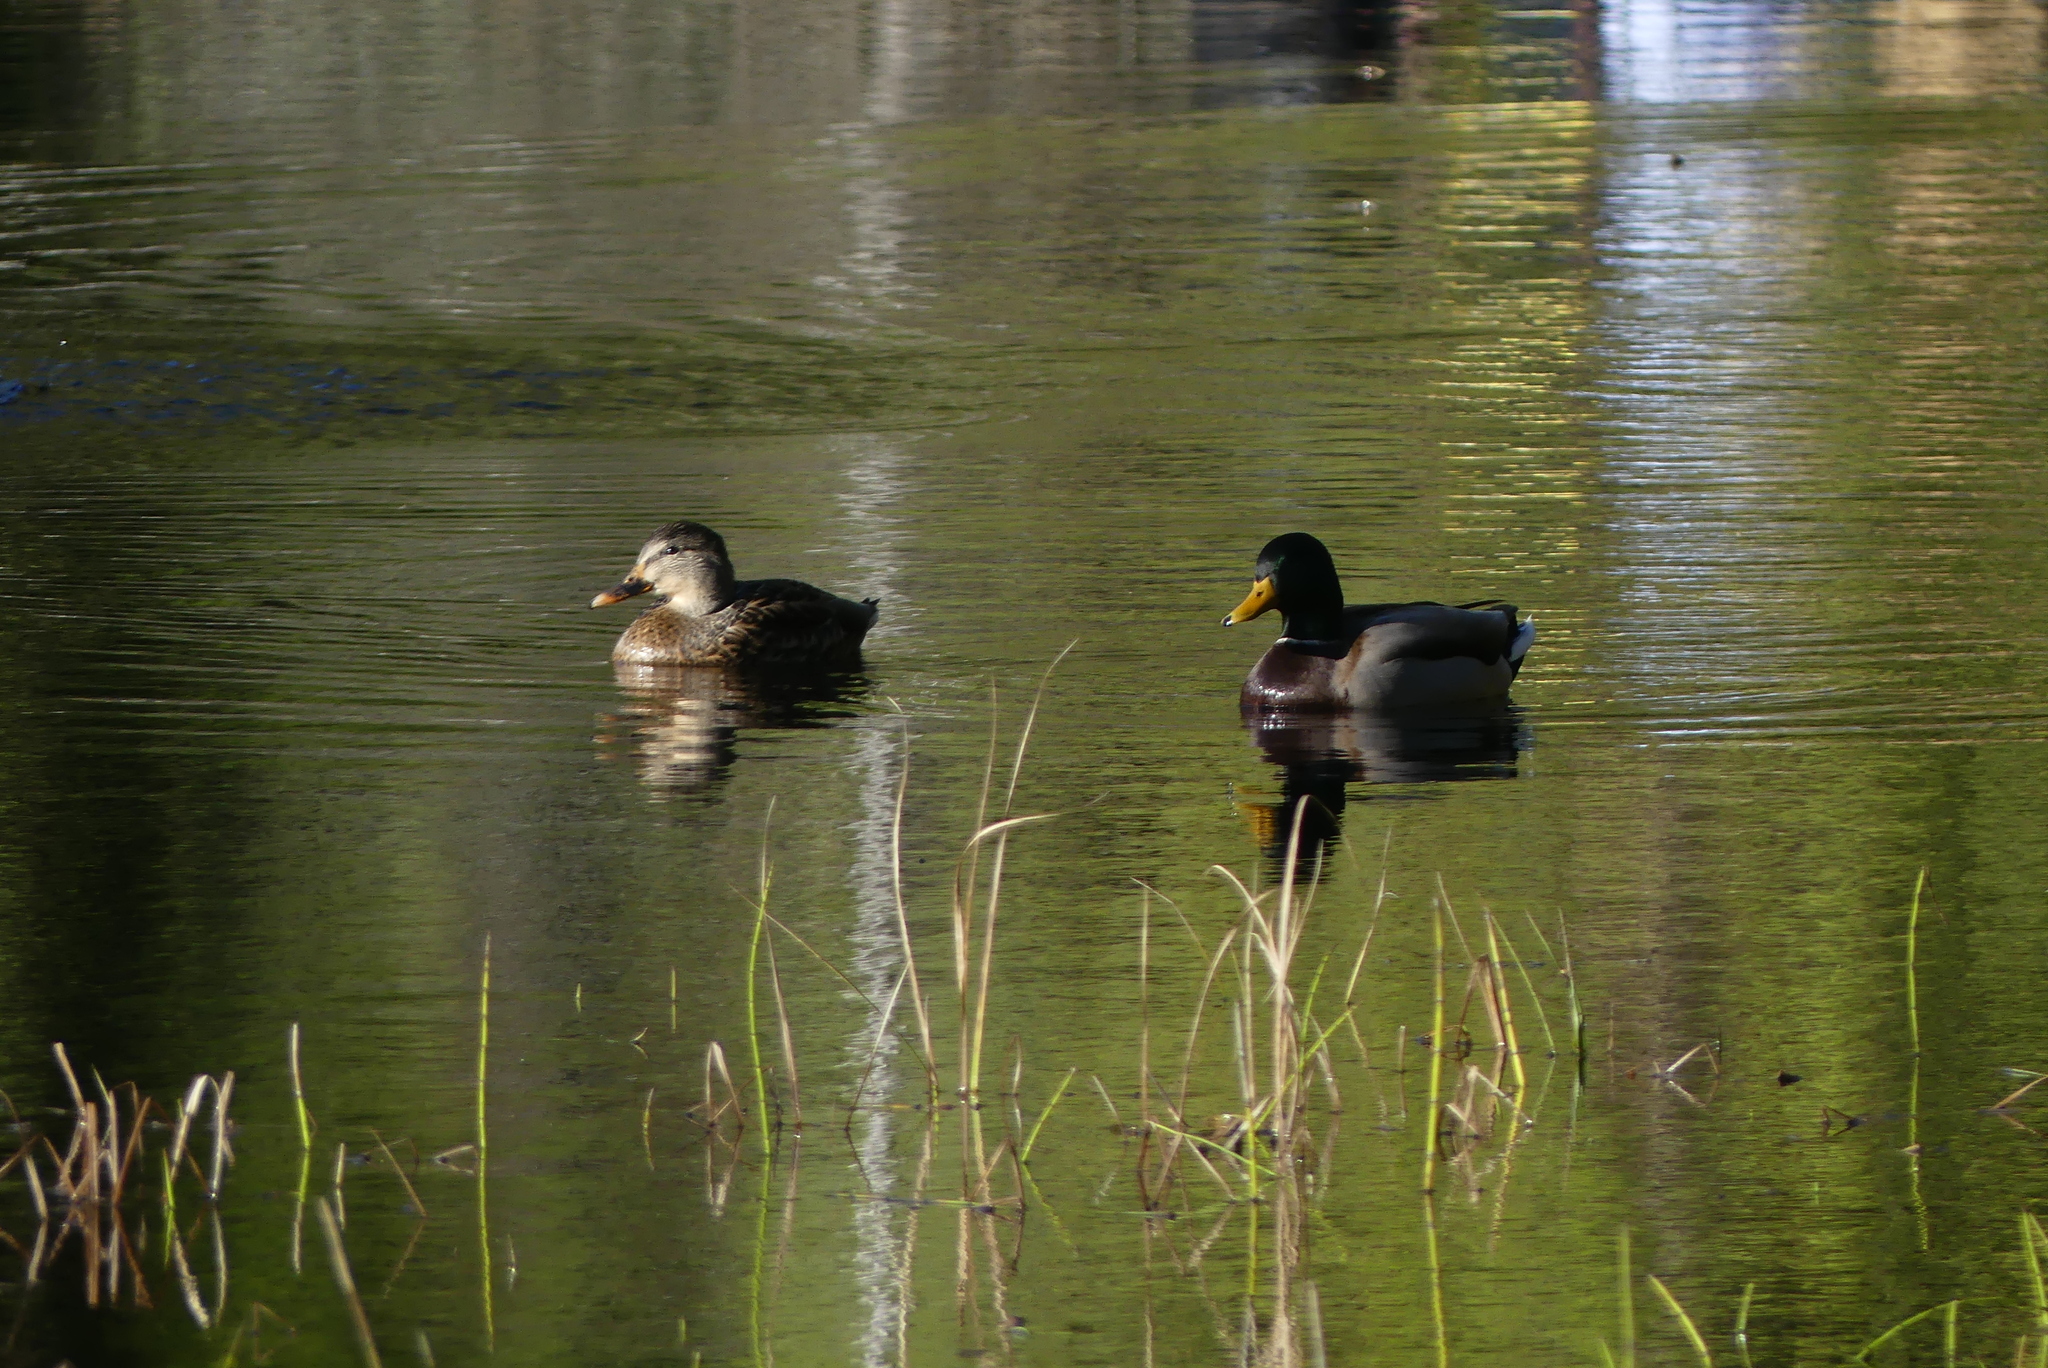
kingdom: Animalia
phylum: Chordata
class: Aves
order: Anseriformes
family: Anatidae
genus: Anas
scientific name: Anas platyrhynchos
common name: Mallard
